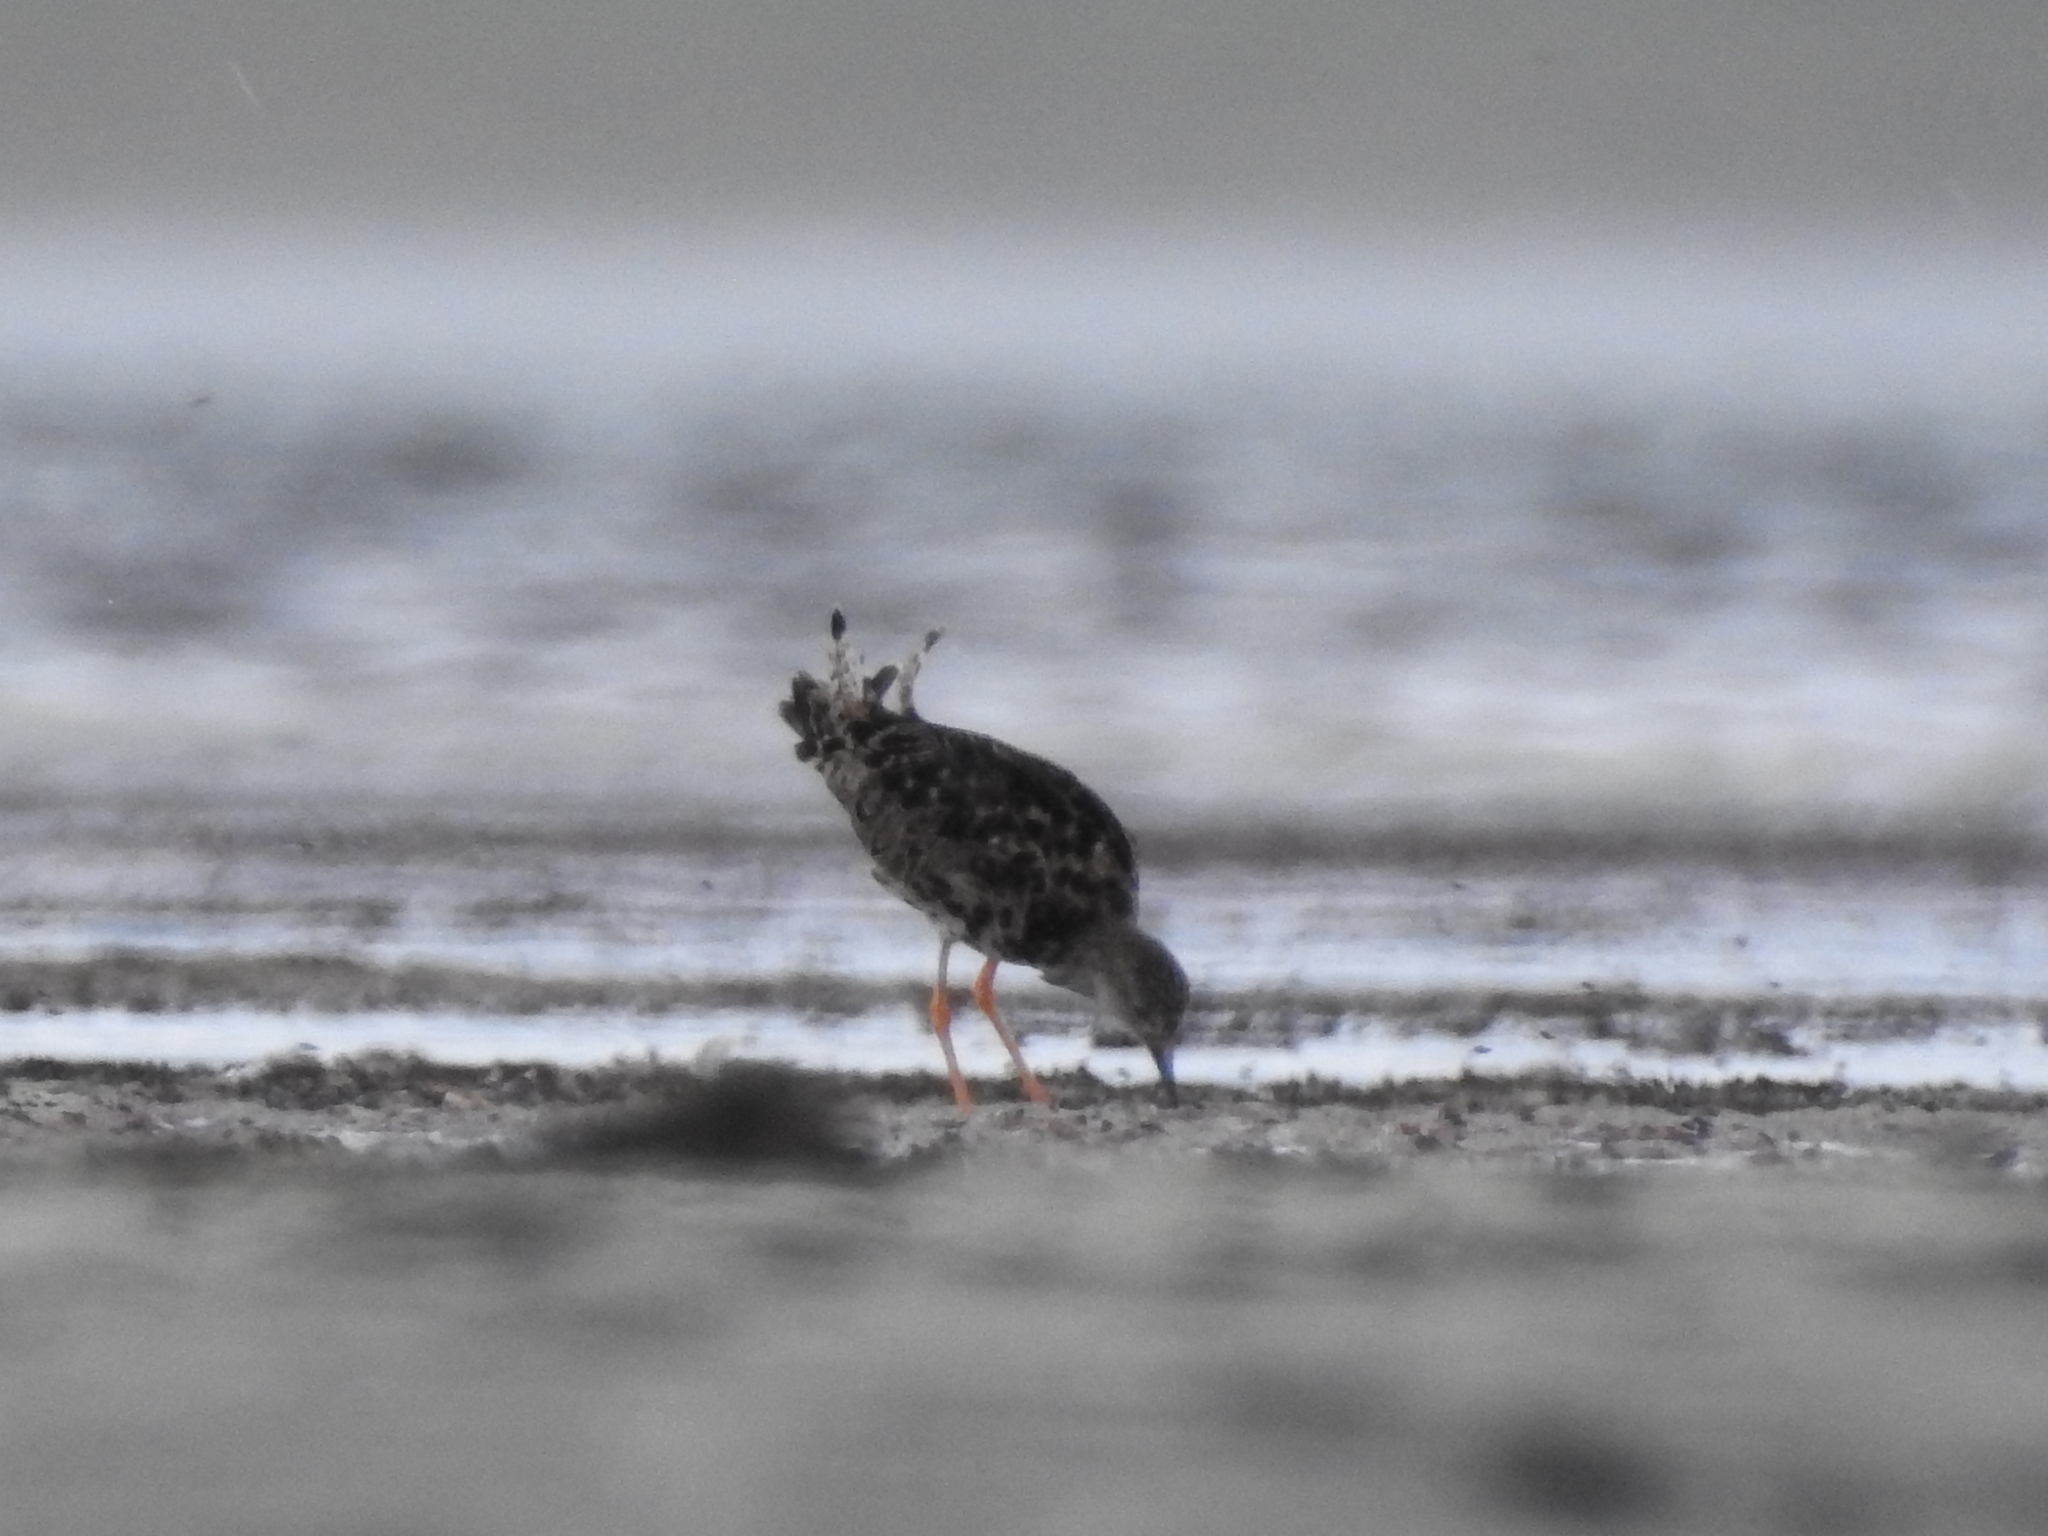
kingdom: Animalia
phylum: Chordata
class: Aves
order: Charadriiformes
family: Scolopacidae
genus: Calidris
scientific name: Calidris pugnax
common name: Ruff
